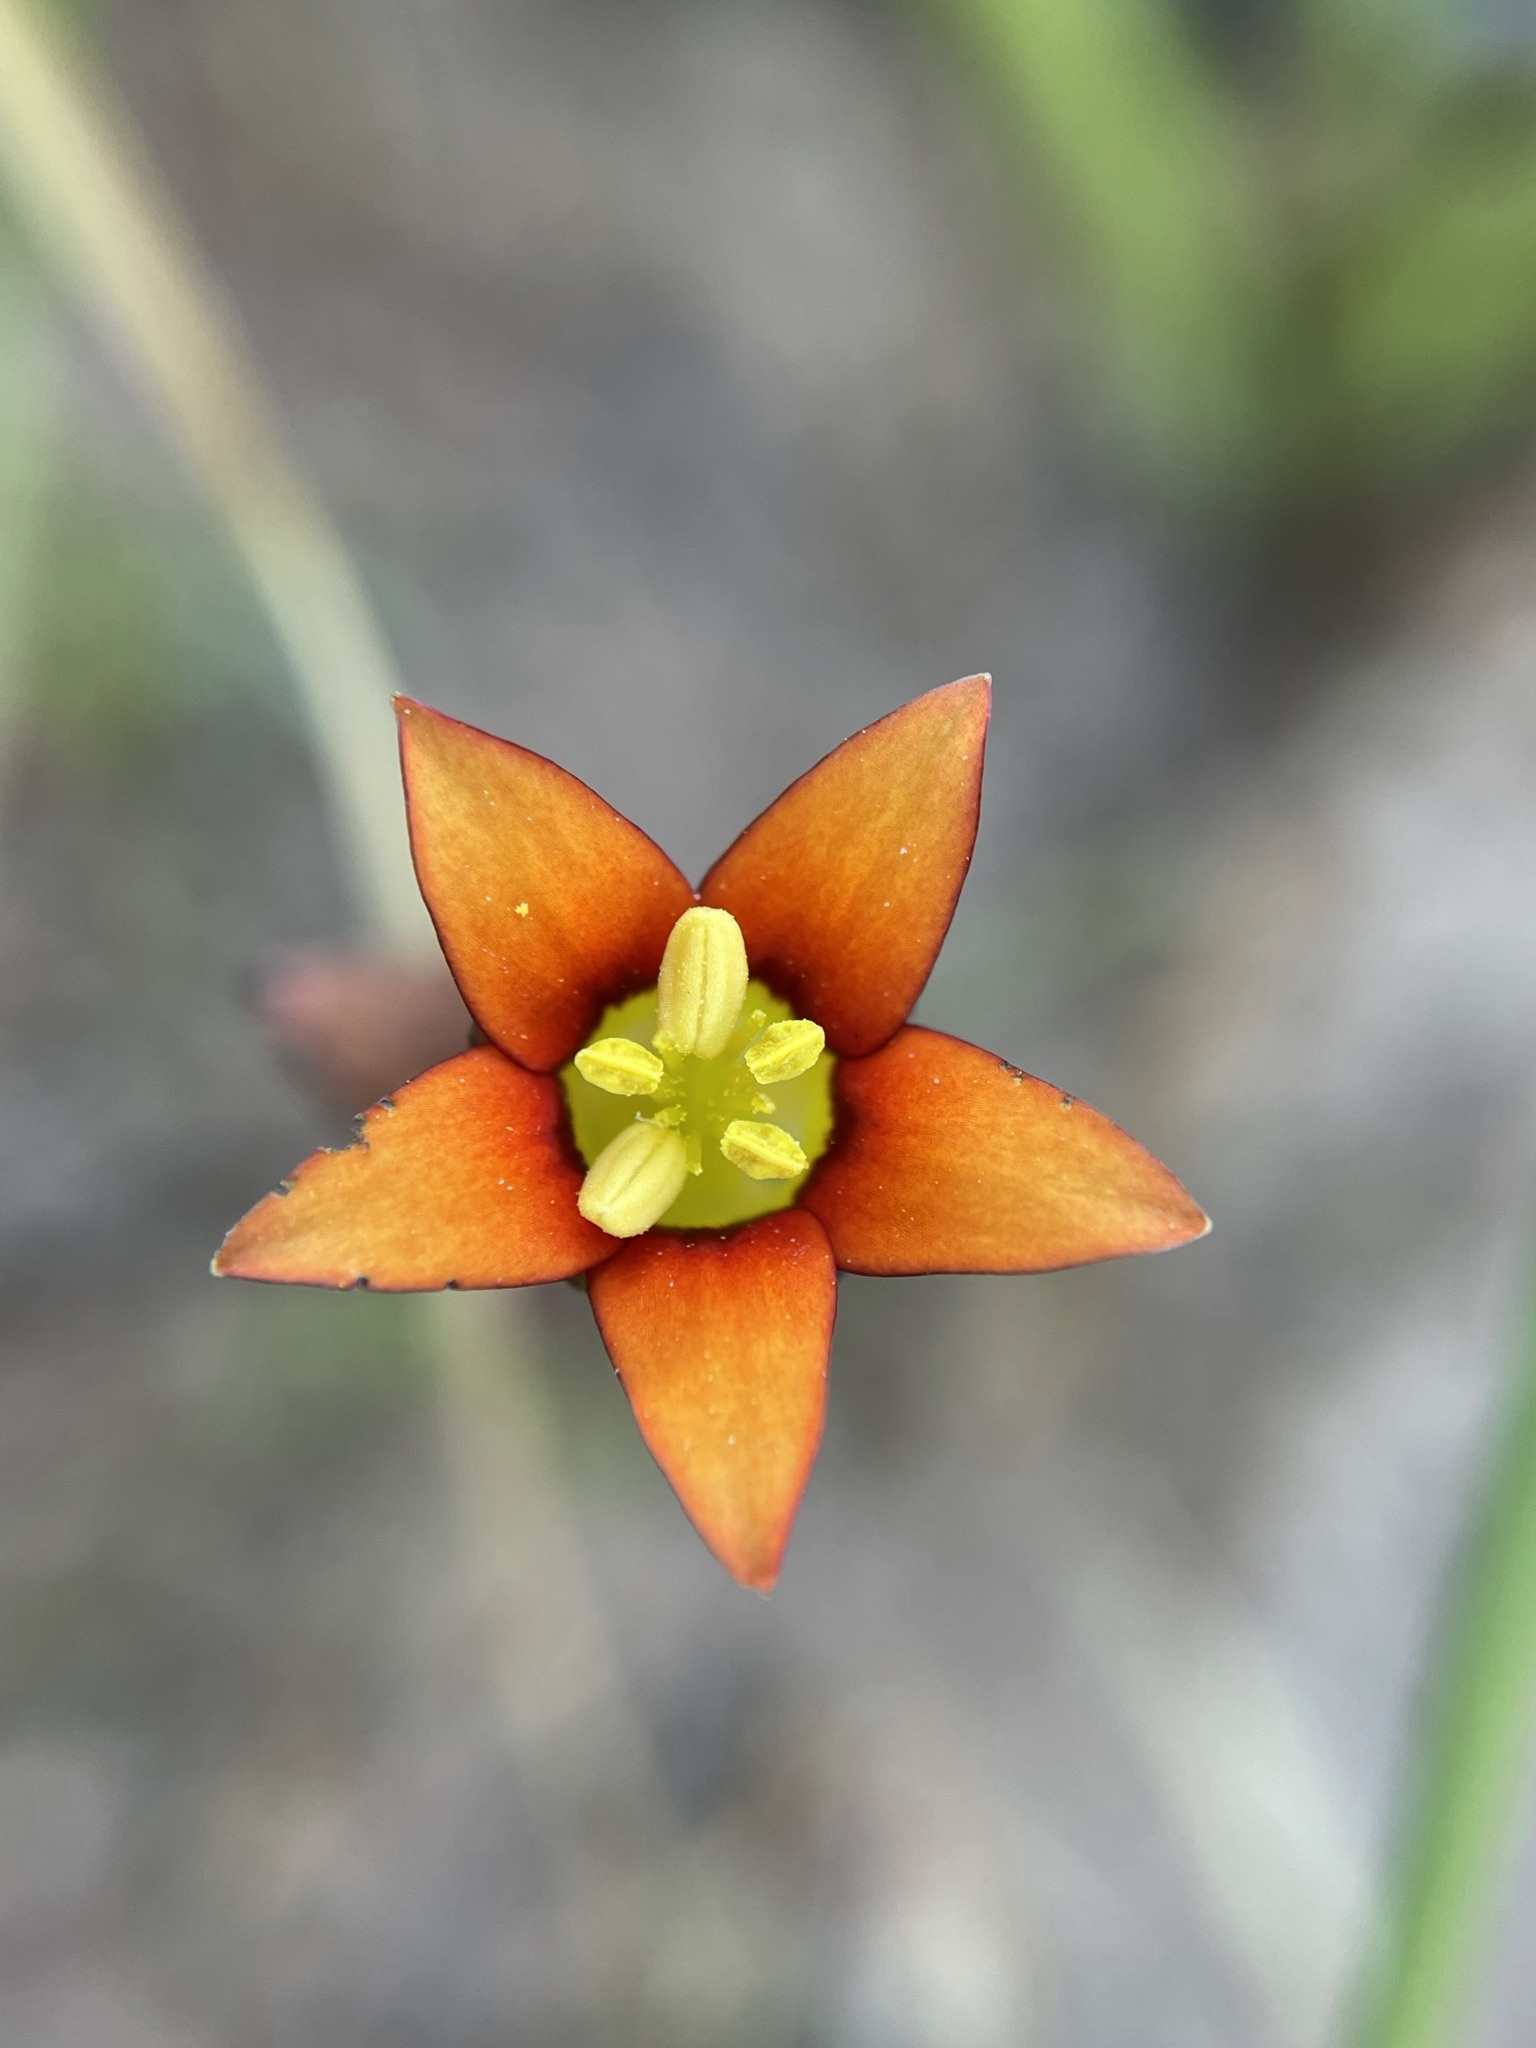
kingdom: Plantae
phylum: Tracheophyta
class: Magnoliopsida
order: Saxifragales
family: Crassulaceae
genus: Crassula
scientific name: Crassula dichotoma
